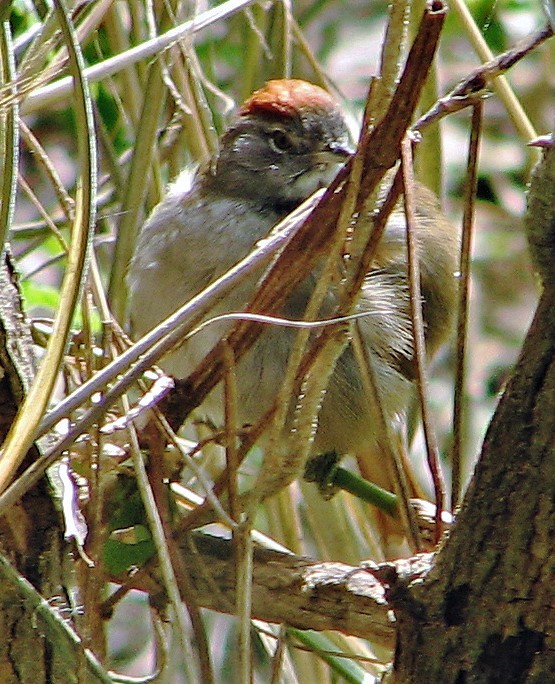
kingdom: Animalia
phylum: Chordata
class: Aves
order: Passeriformes
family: Furnariidae
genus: Synallaxis
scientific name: Synallaxis frontalis
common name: Sooty-fronted spinetail
